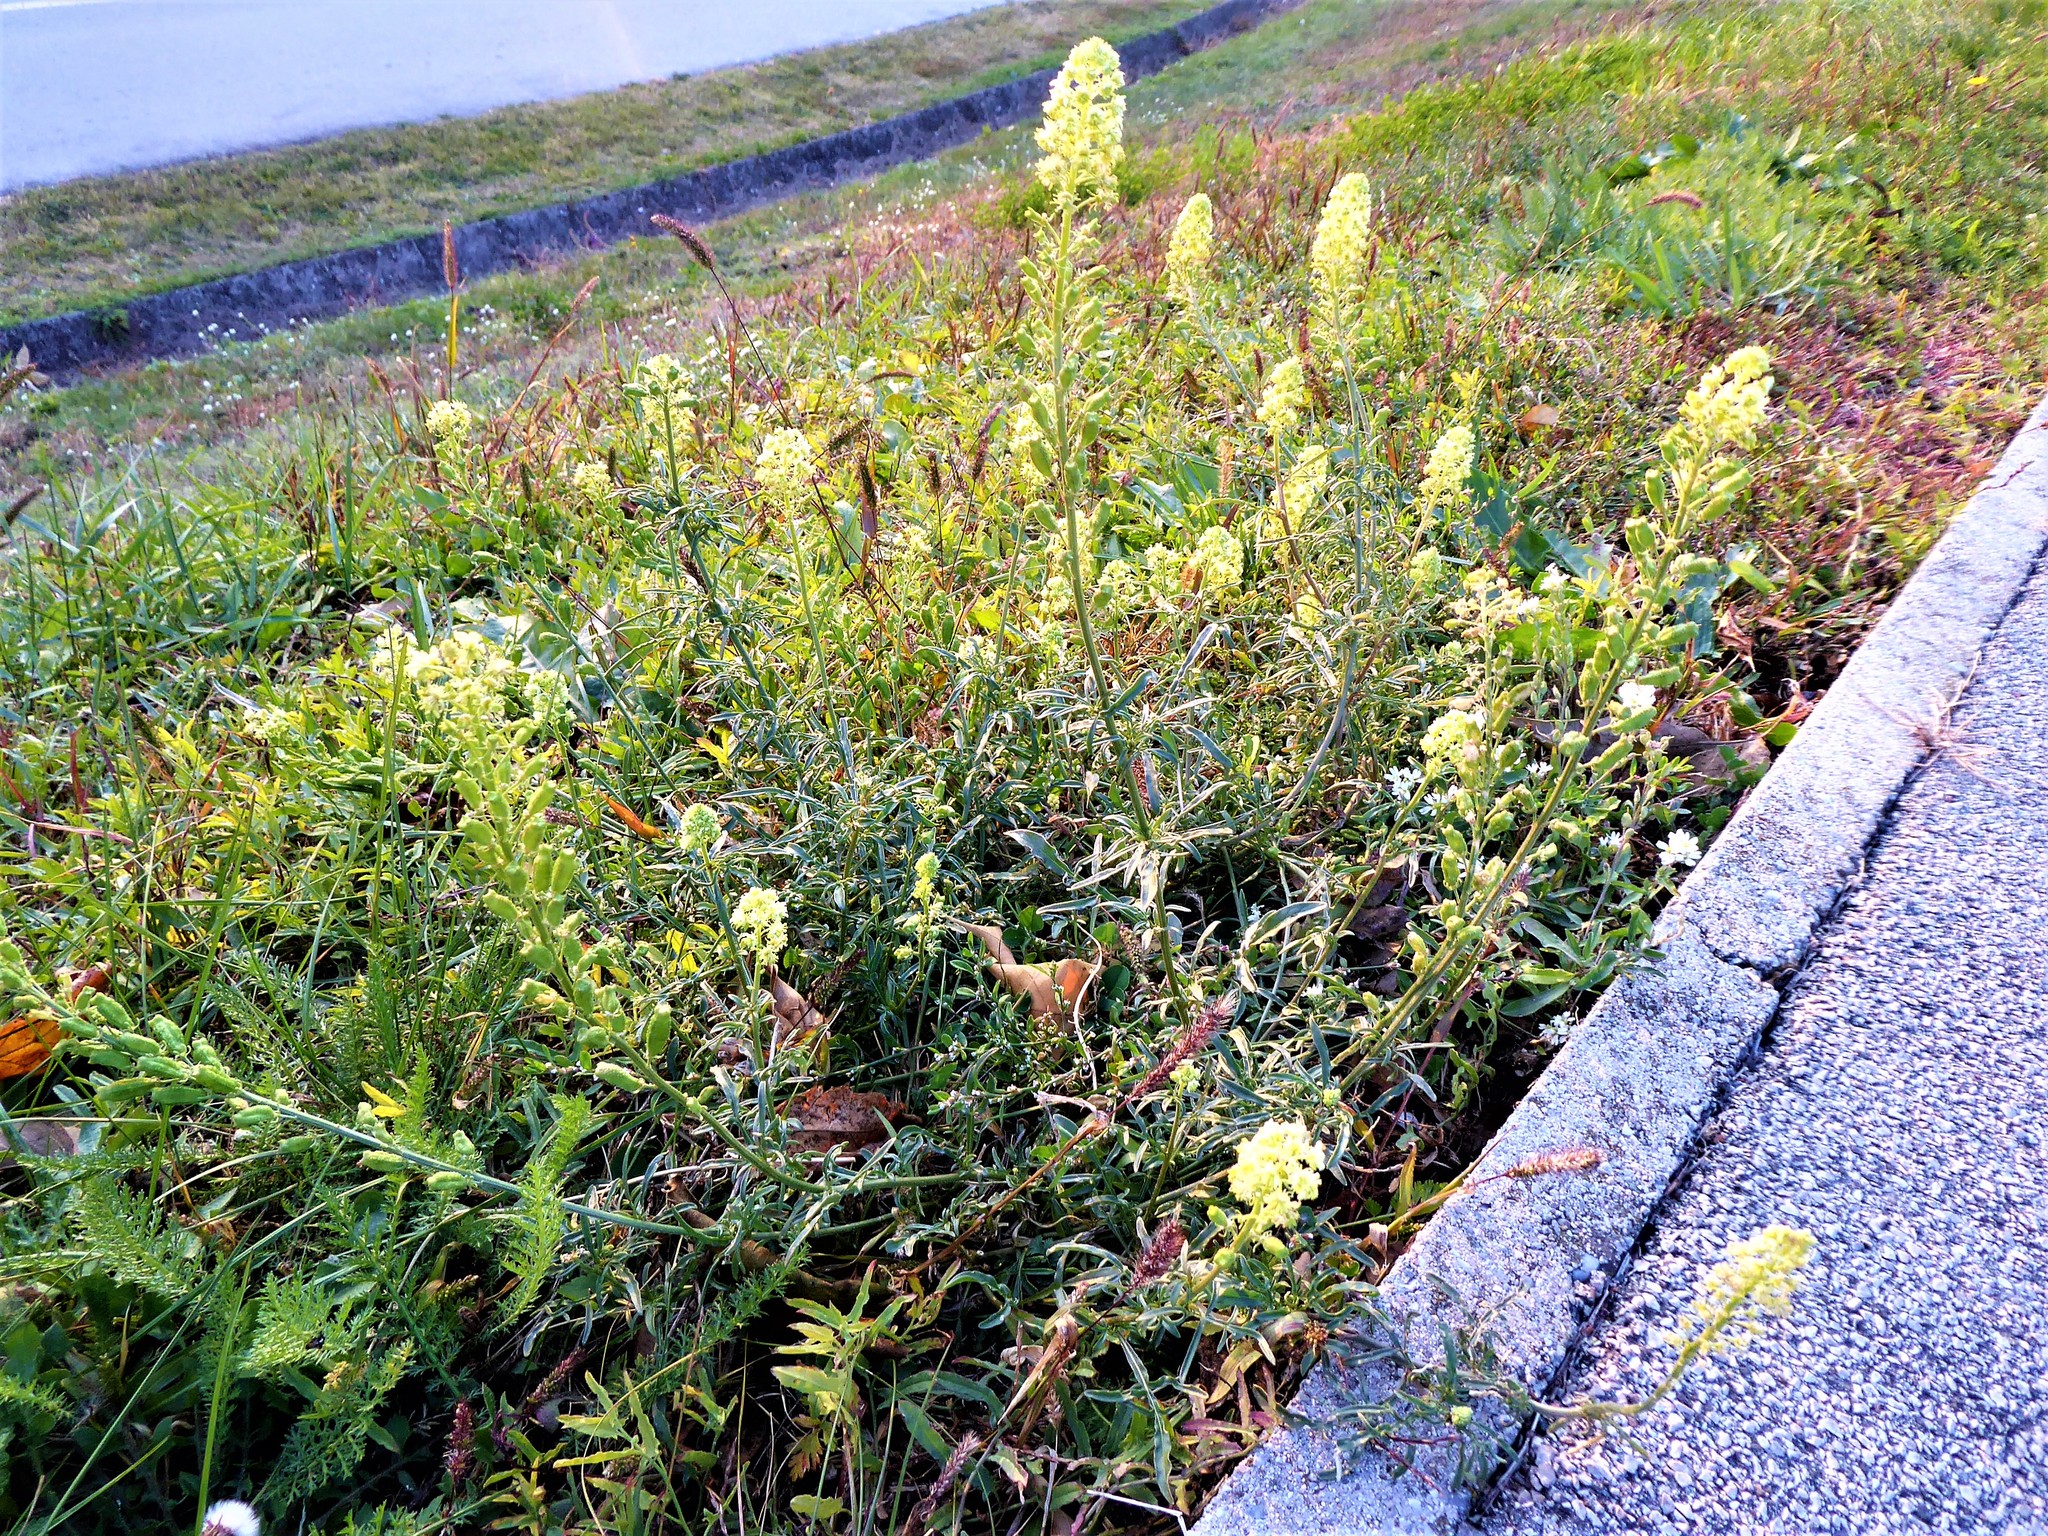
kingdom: Plantae
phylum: Tracheophyta
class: Magnoliopsida
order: Brassicales
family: Resedaceae
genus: Reseda
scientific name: Reseda lutea
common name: Wild mignonette
